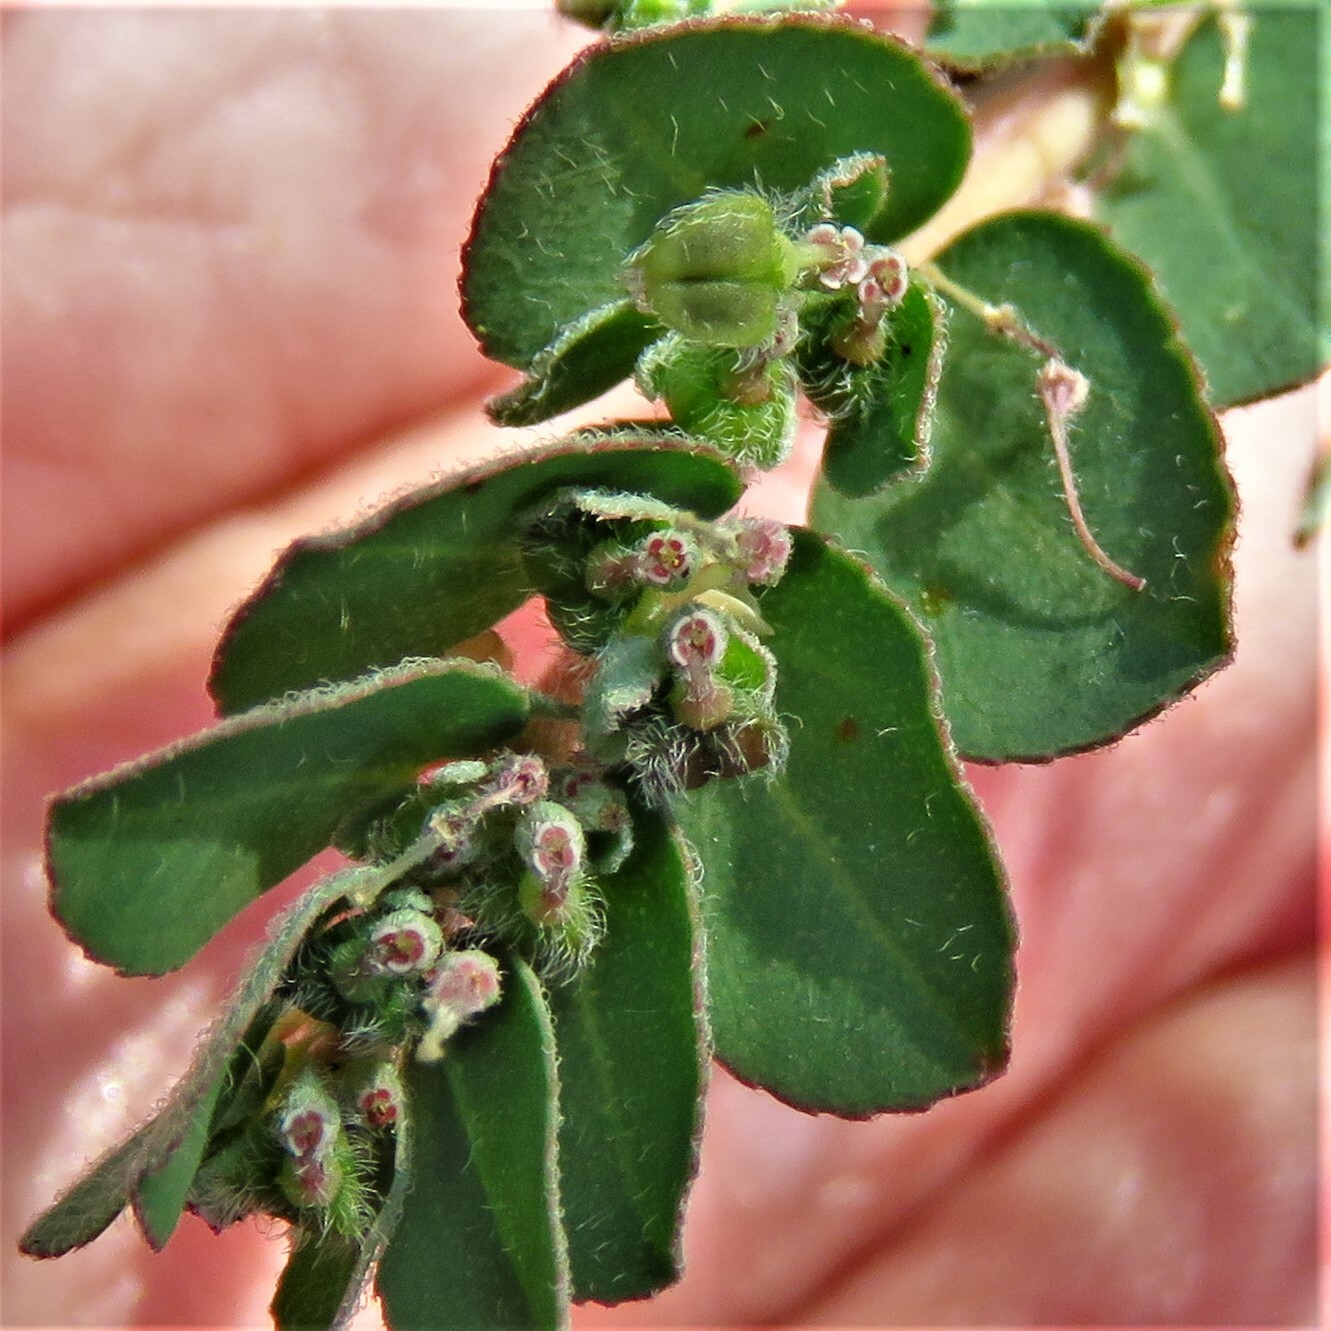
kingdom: Plantae
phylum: Tracheophyta
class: Magnoliopsida
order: Malpighiales
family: Euphorbiaceae
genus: Euphorbia
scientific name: Euphorbia prostrata
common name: Prostrate sandmat
